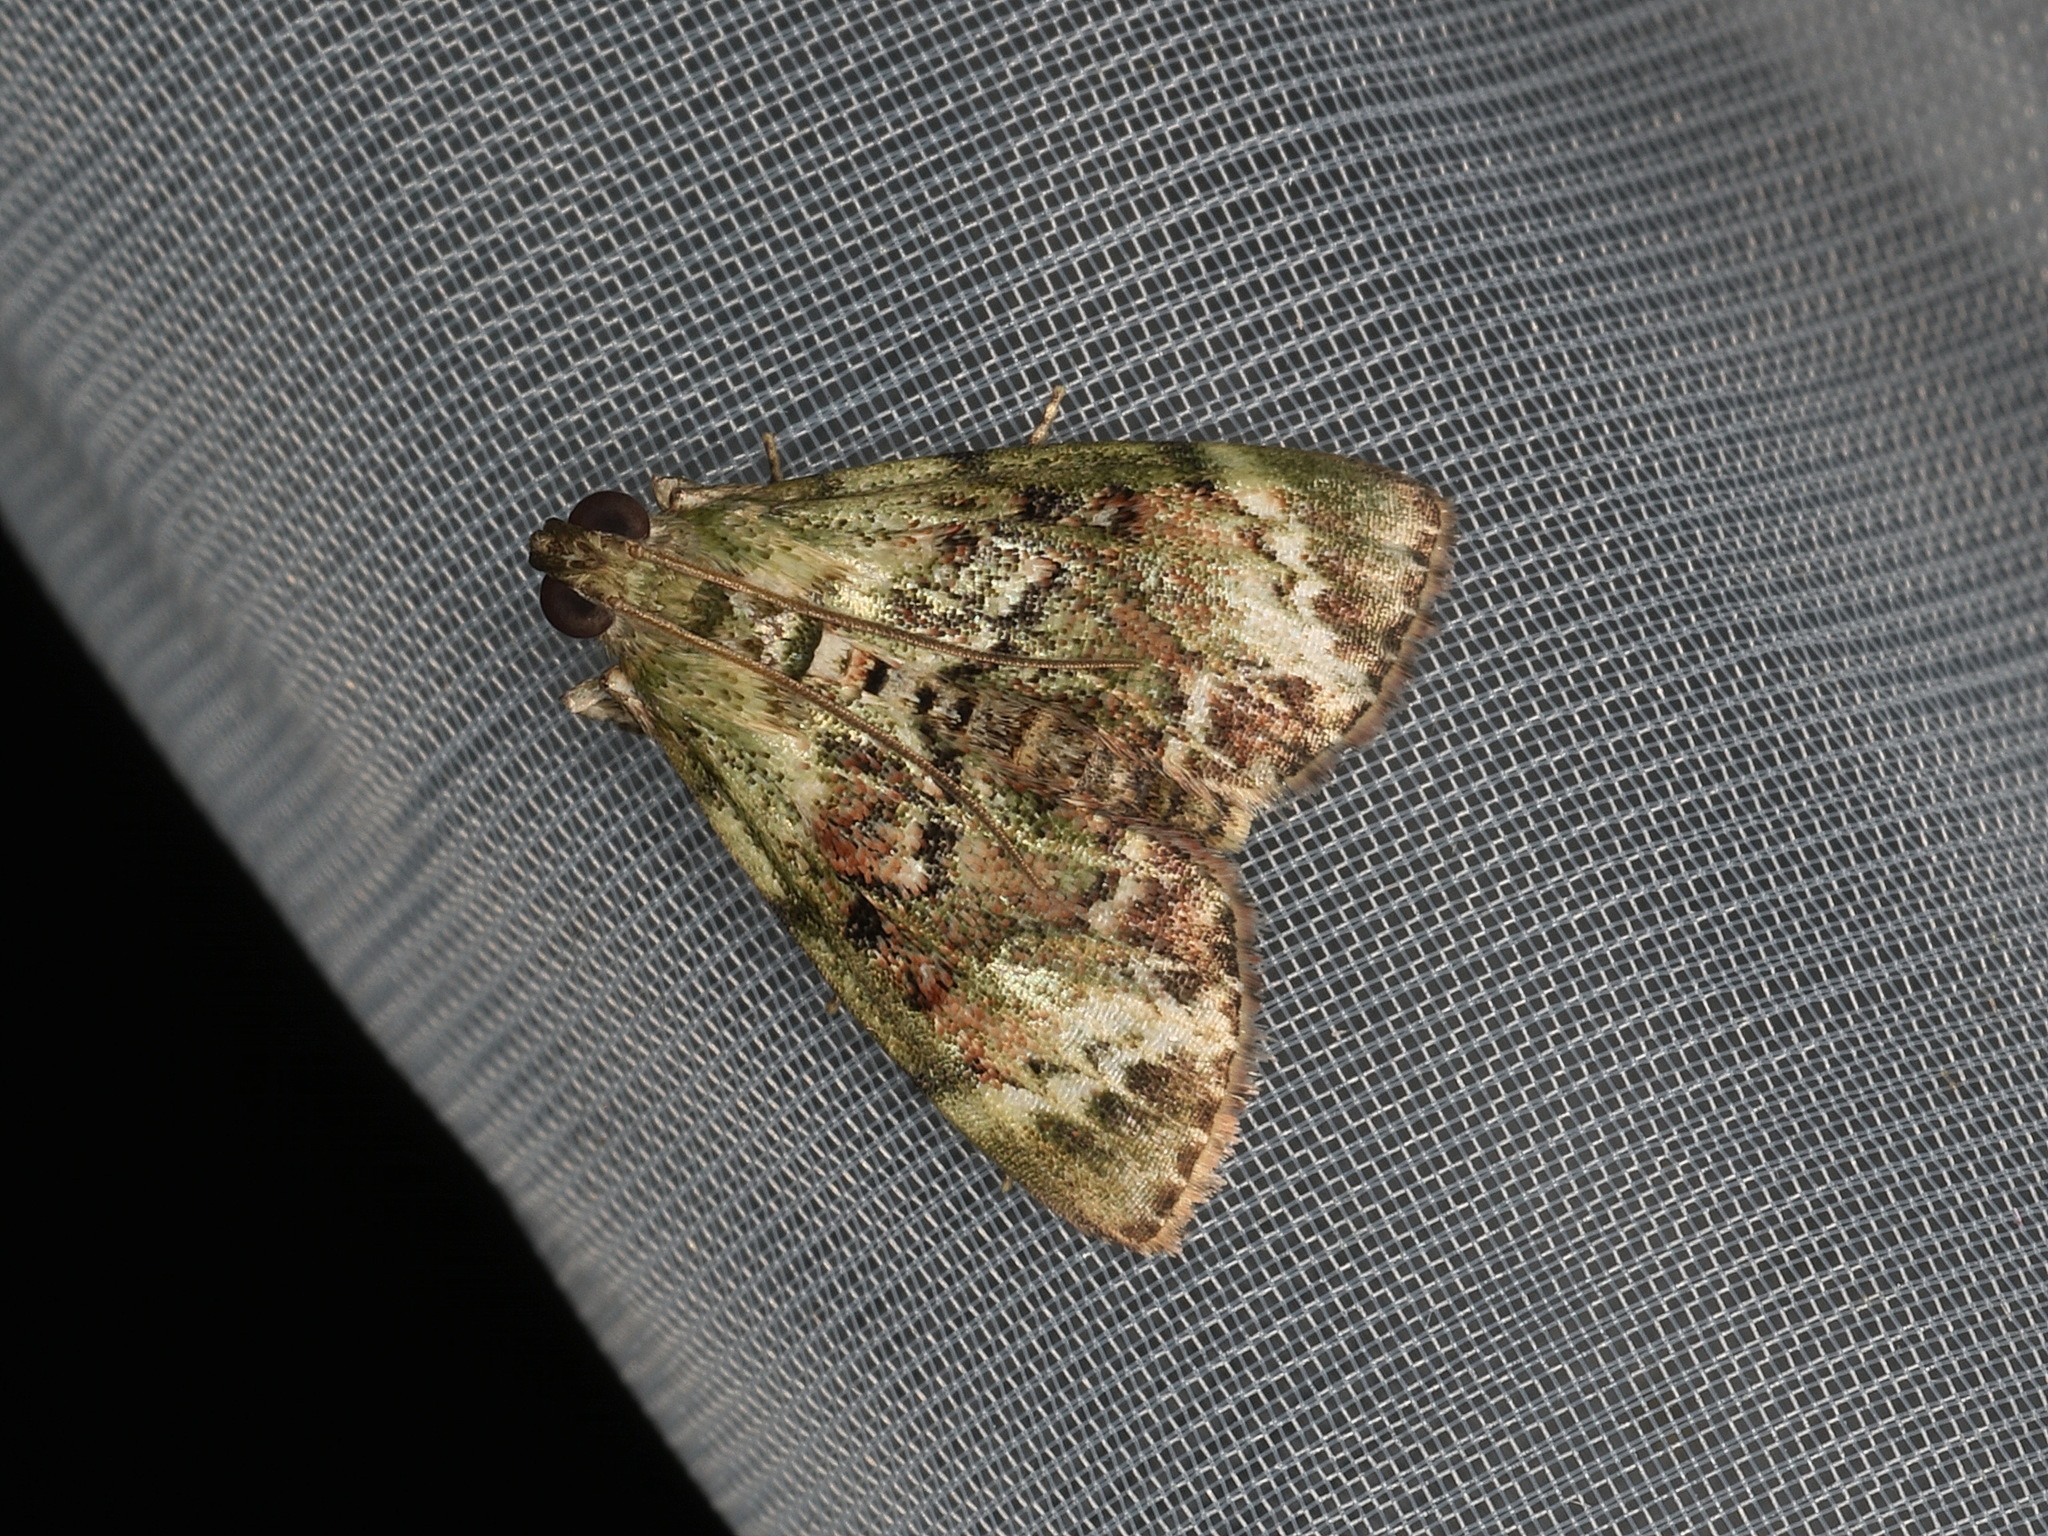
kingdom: Animalia
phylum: Arthropoda
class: Insecta
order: Lepidoptera
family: Pyralidae
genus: Stericta
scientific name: Stericta bryomima
